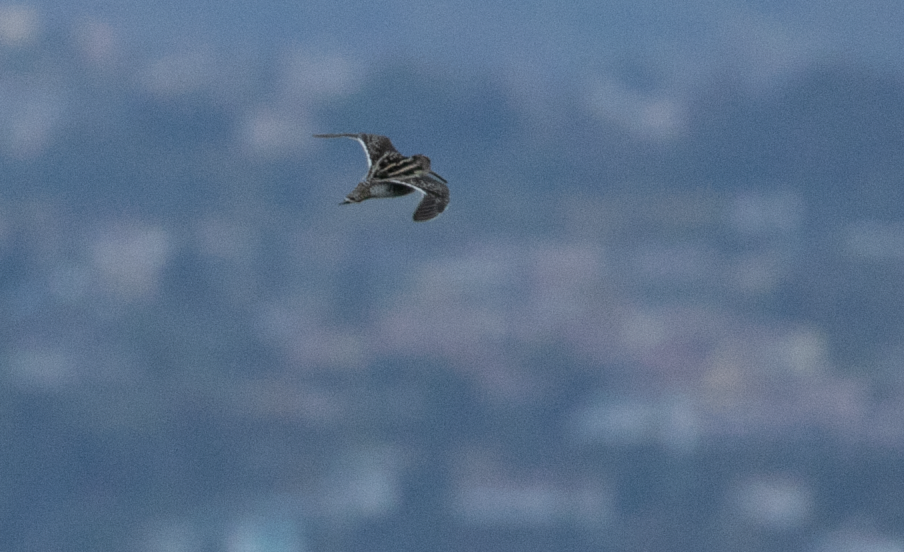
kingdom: Animalia
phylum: Chordata
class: Aves
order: Charadriiformes
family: Scolopacidae
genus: Gallinago
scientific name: Gallinago gallinago
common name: Common snipe
